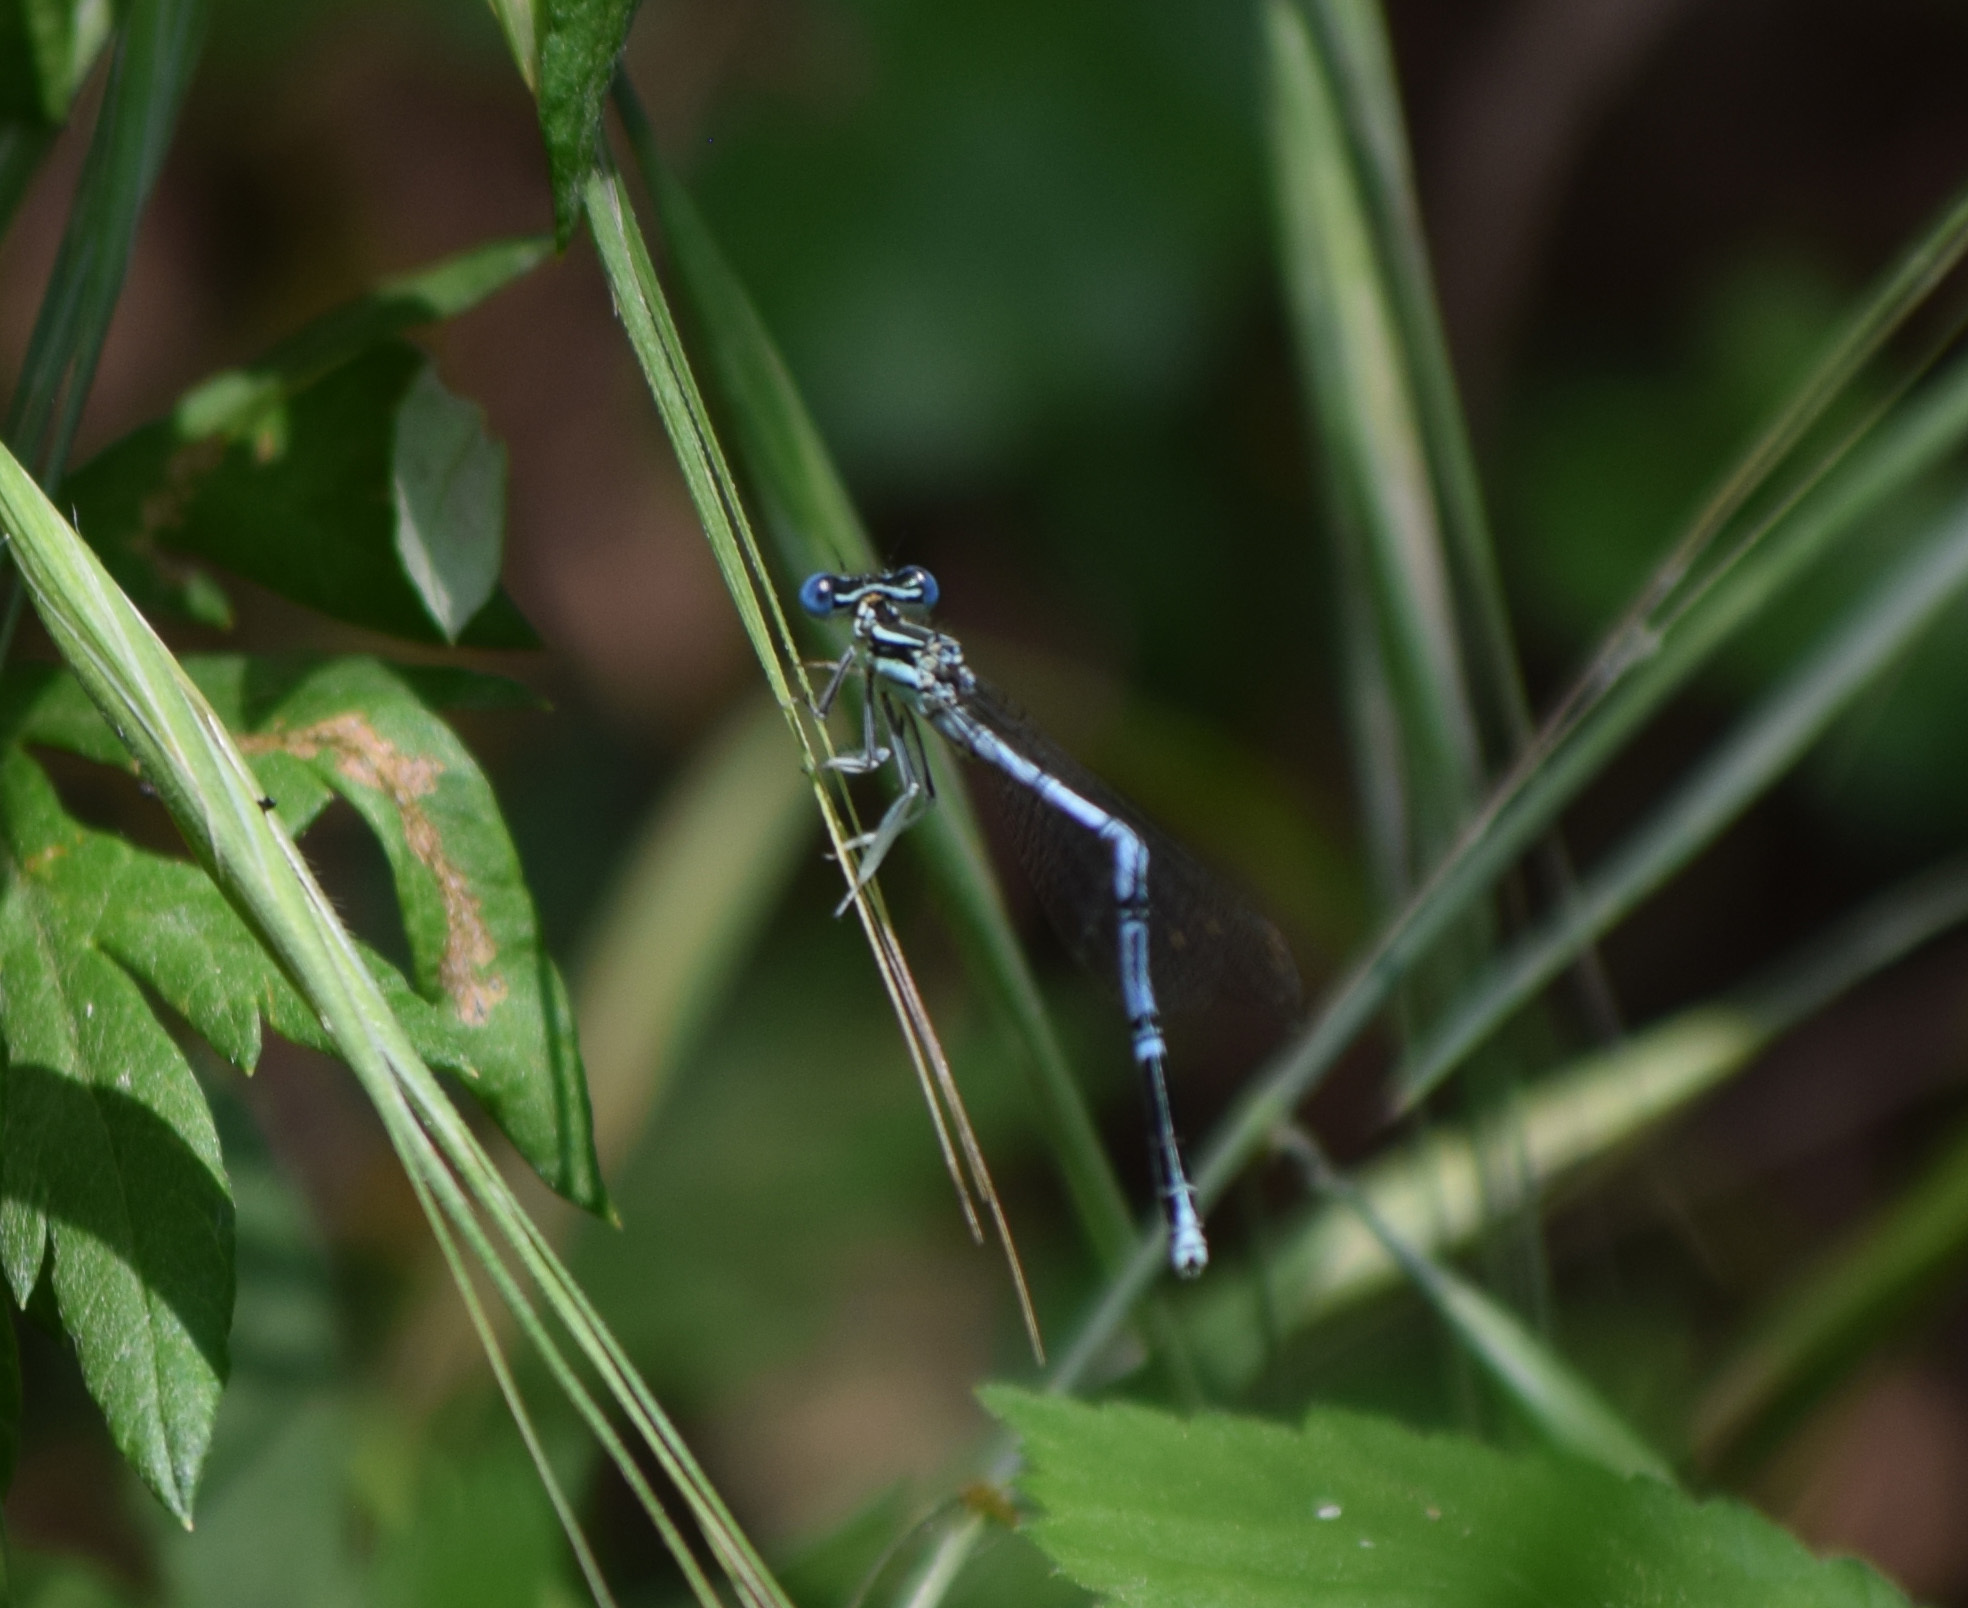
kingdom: Animalia
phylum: Arthropoda
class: Insecta
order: Odonata
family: Platycnemididae
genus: Platycnemis
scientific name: Platycnemis pennipes
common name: White-legged damselfly
